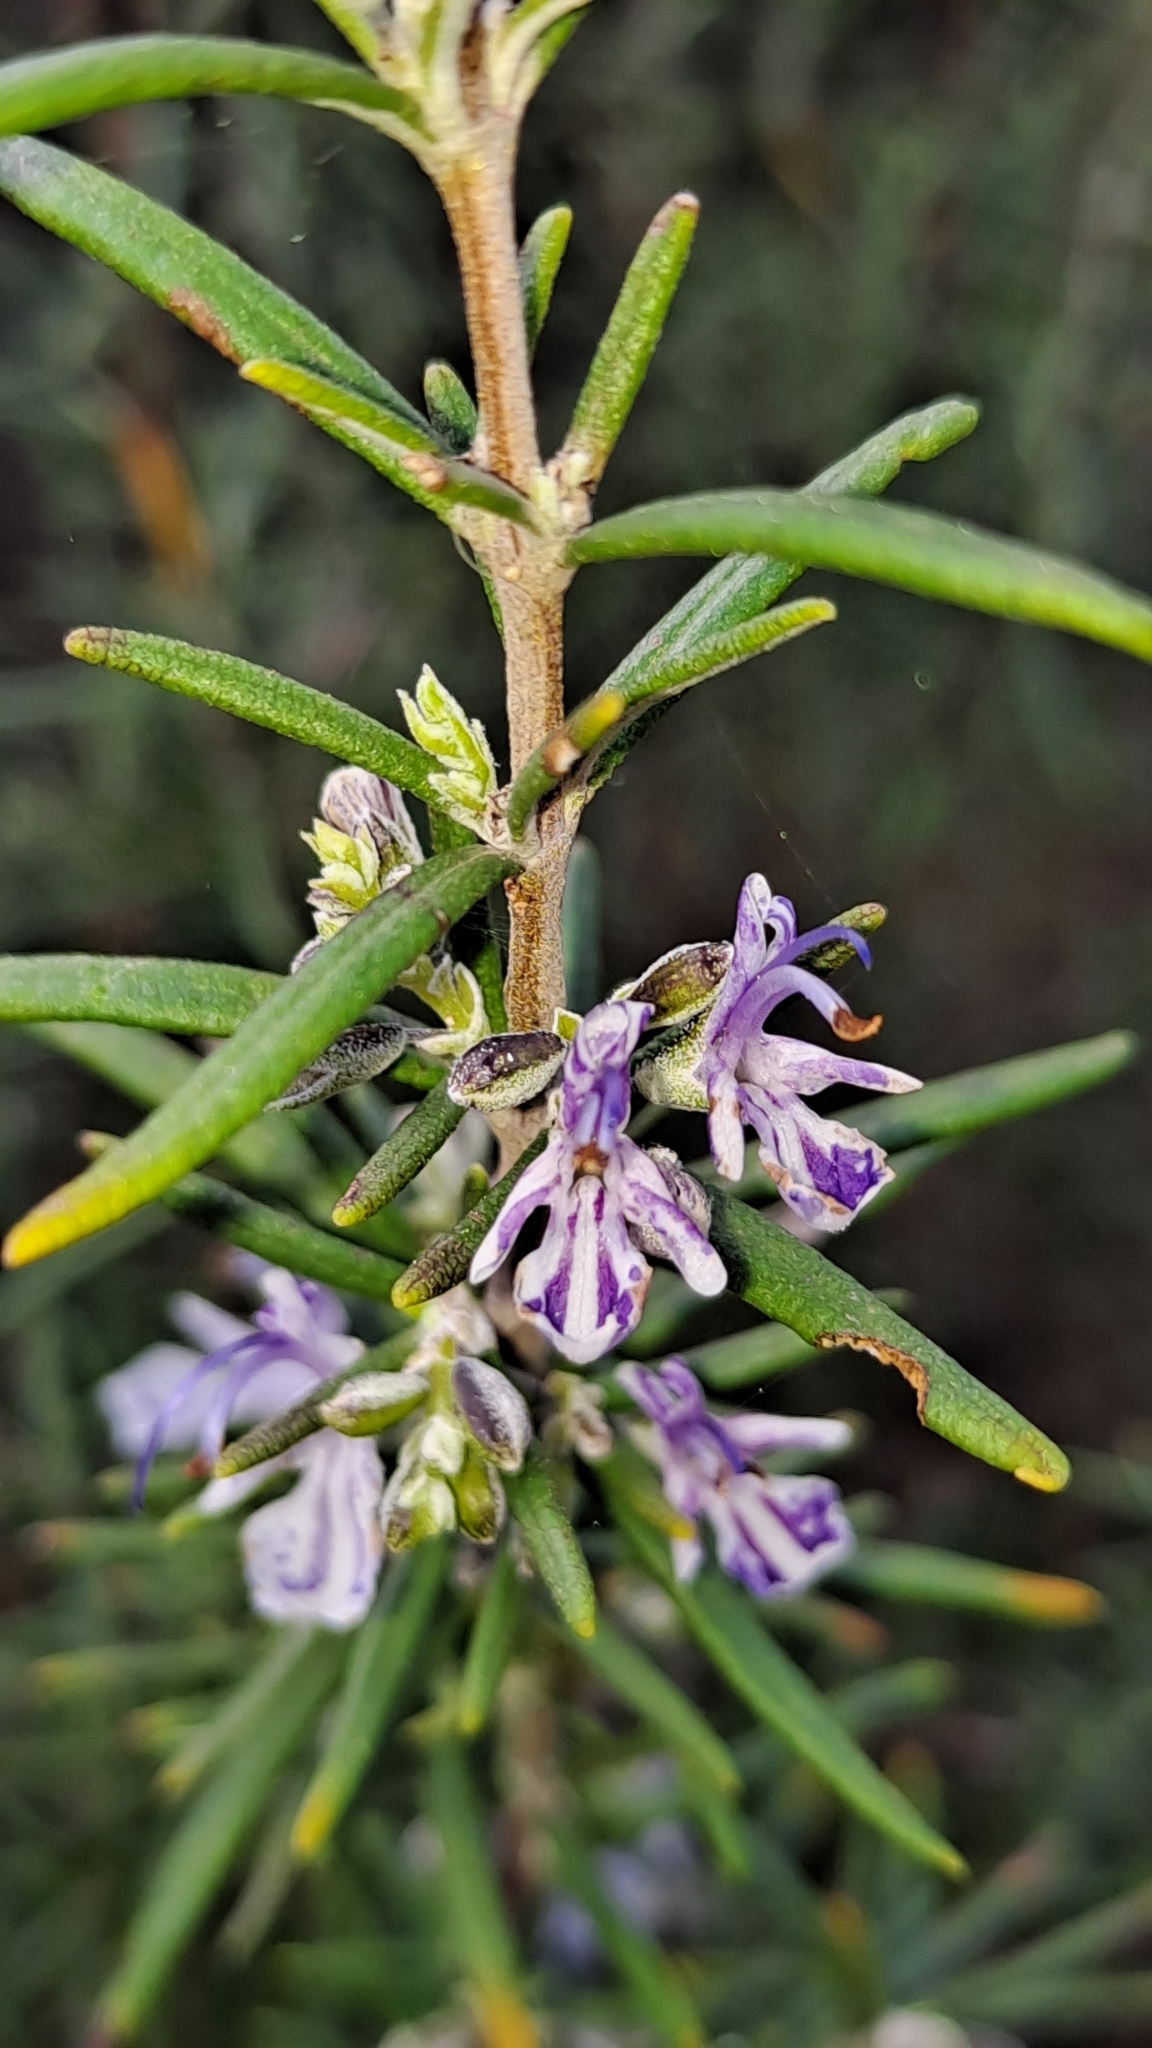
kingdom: Plantae
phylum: Tracheophyta
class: Magnoliopsida
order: Lamiales
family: Lamiaceae
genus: Salvia
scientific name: Salvia rosmarinus
